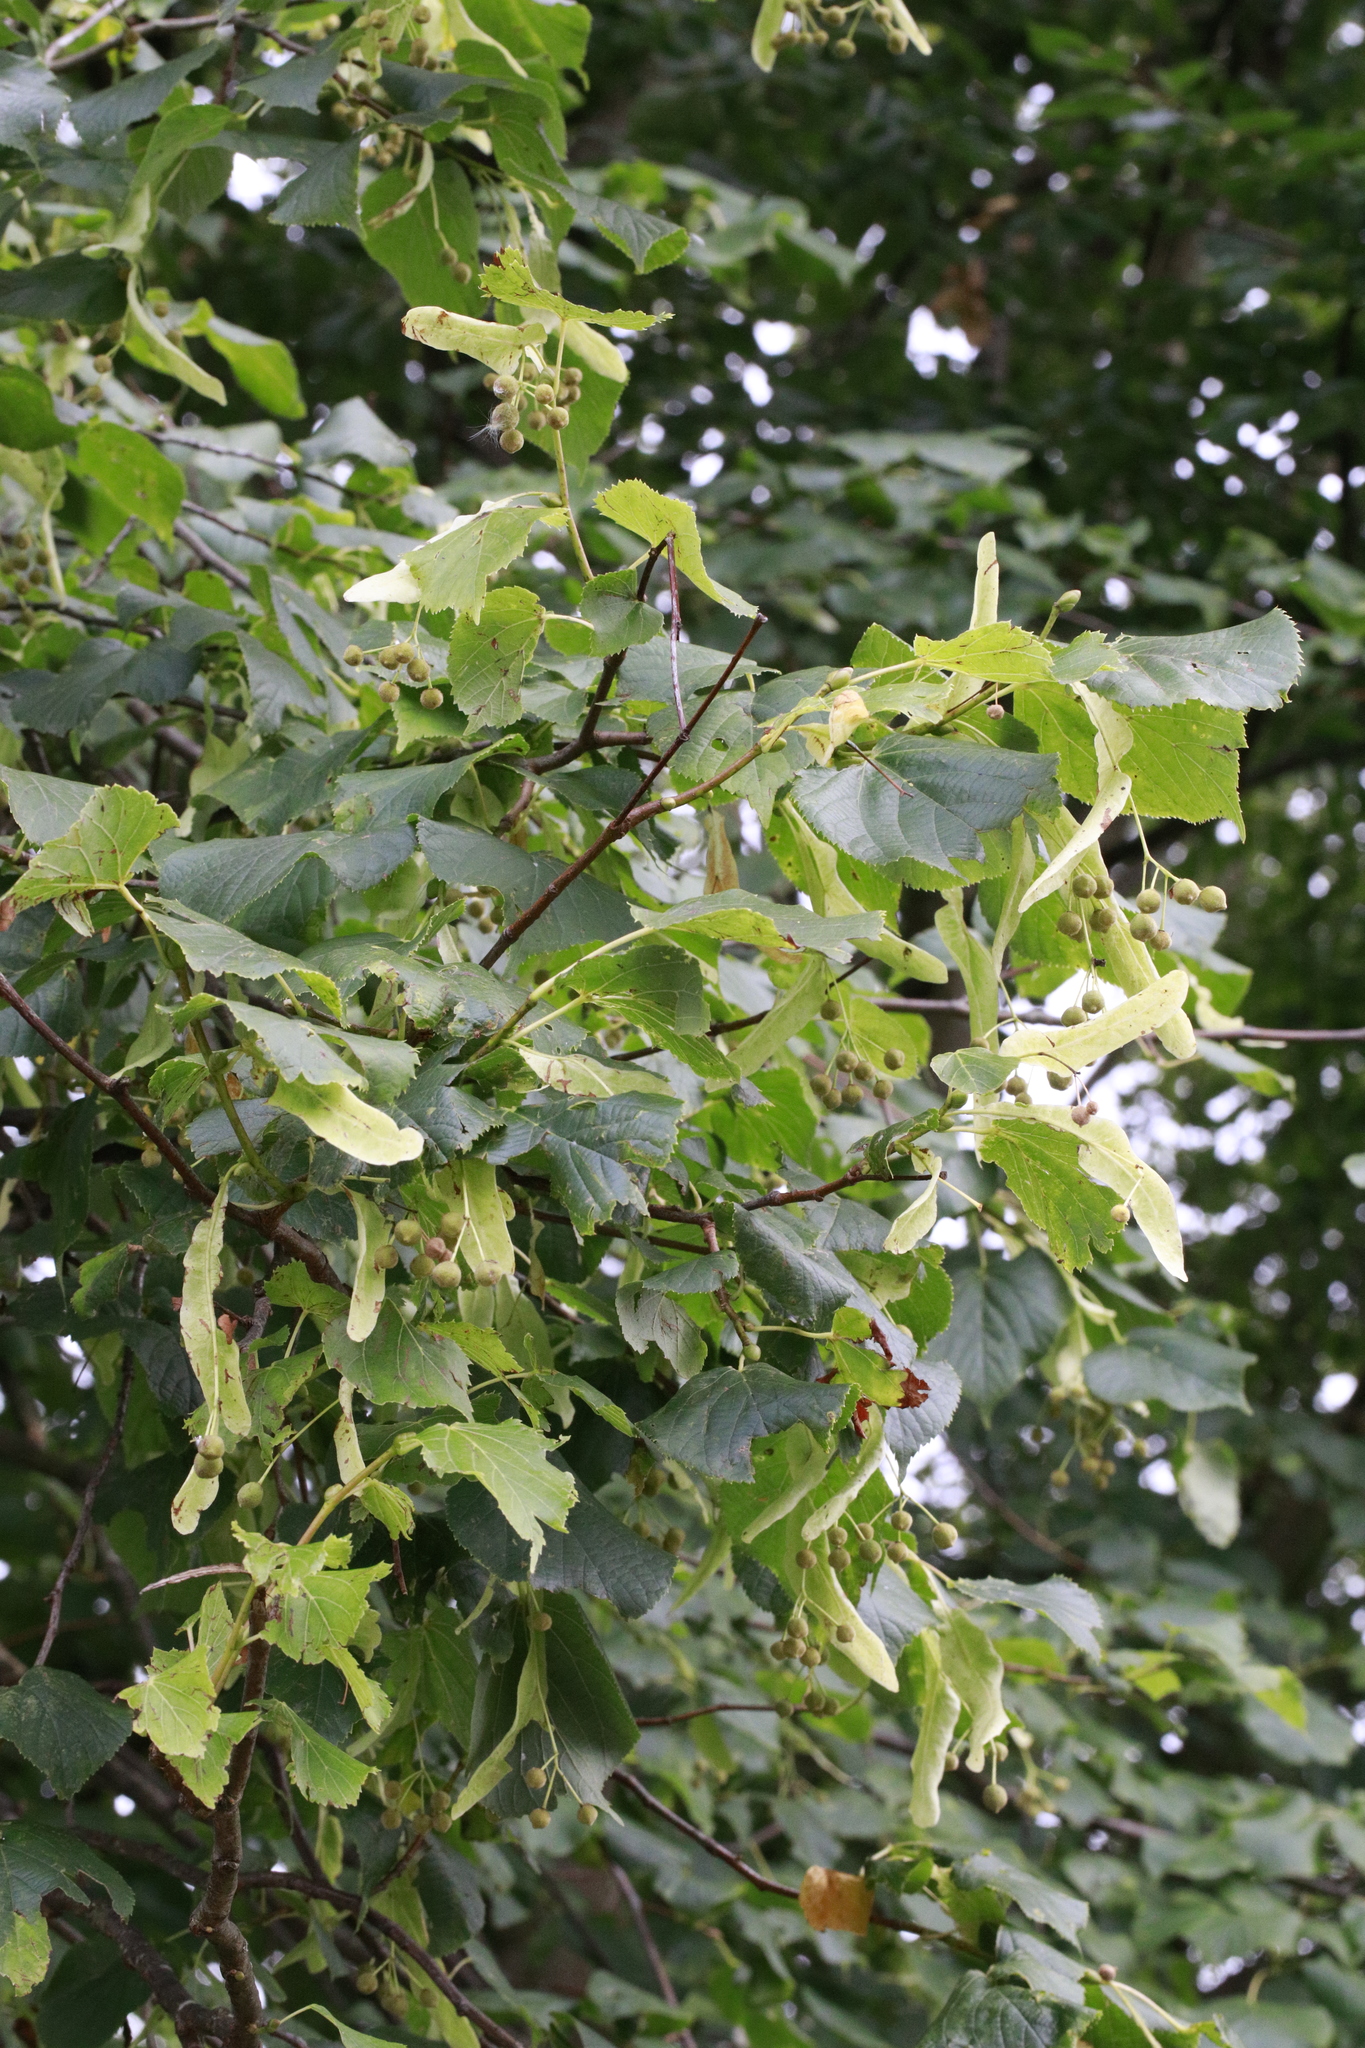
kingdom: Plantae
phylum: Tracheophyta
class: Magnoliopsida
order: Malvales
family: Malvaceae
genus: Tilia
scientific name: Tilia europaea
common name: European linden
